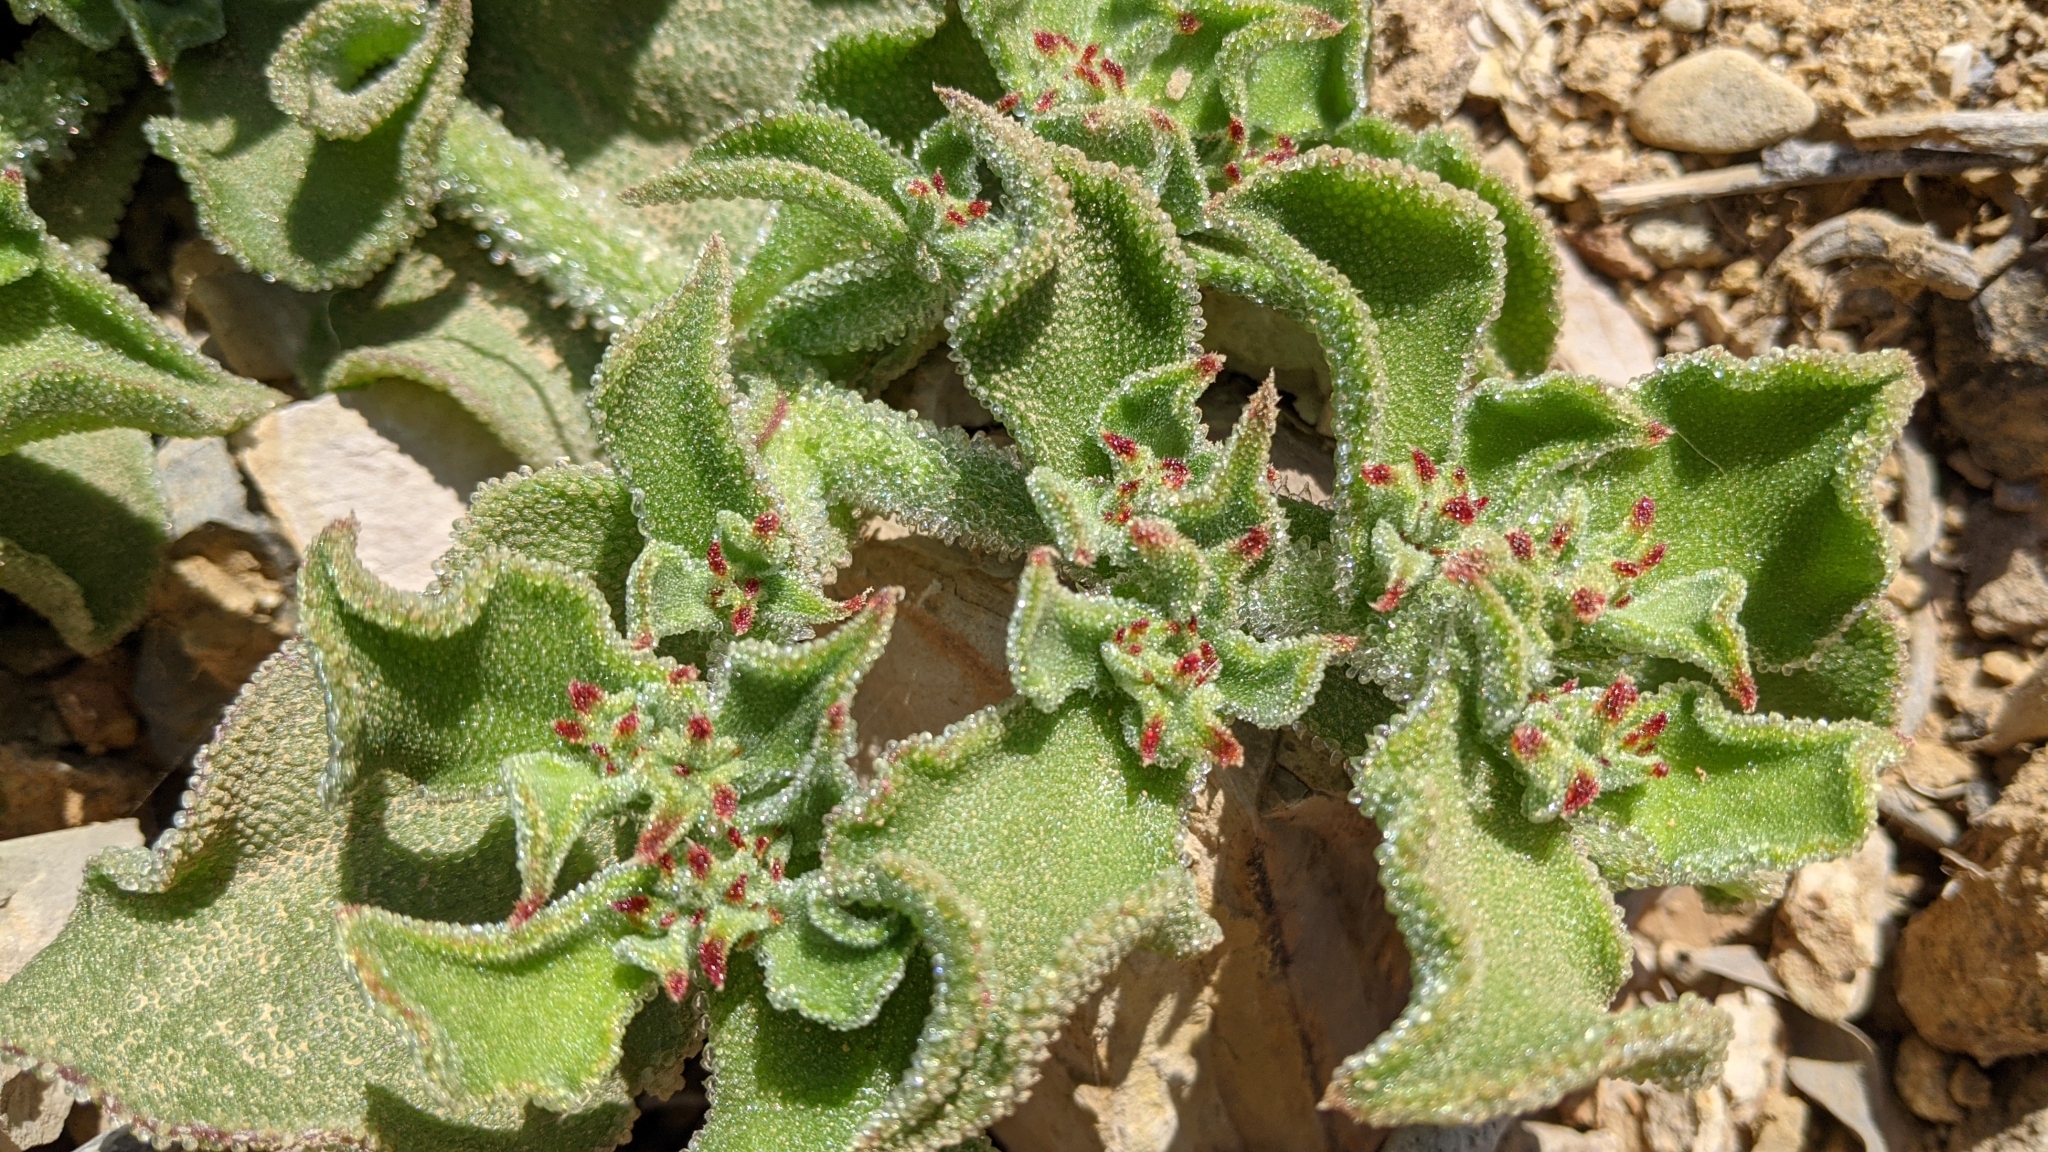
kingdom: Plantae
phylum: Tracheophyta
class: Magnoliopsida
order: Caryophyllales
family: Aizoaceae
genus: Mesembryanthemum
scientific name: Mesembryanthemum crystallinum
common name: Common iceplant
